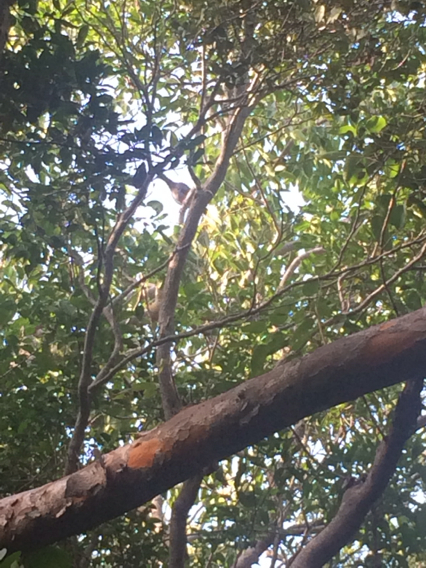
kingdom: Animalia
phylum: Chordata
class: Aves
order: Columbiformes
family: Columbidae
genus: Patagioenas
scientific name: Patagioenas leucocephala
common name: White-crowned pigeon
